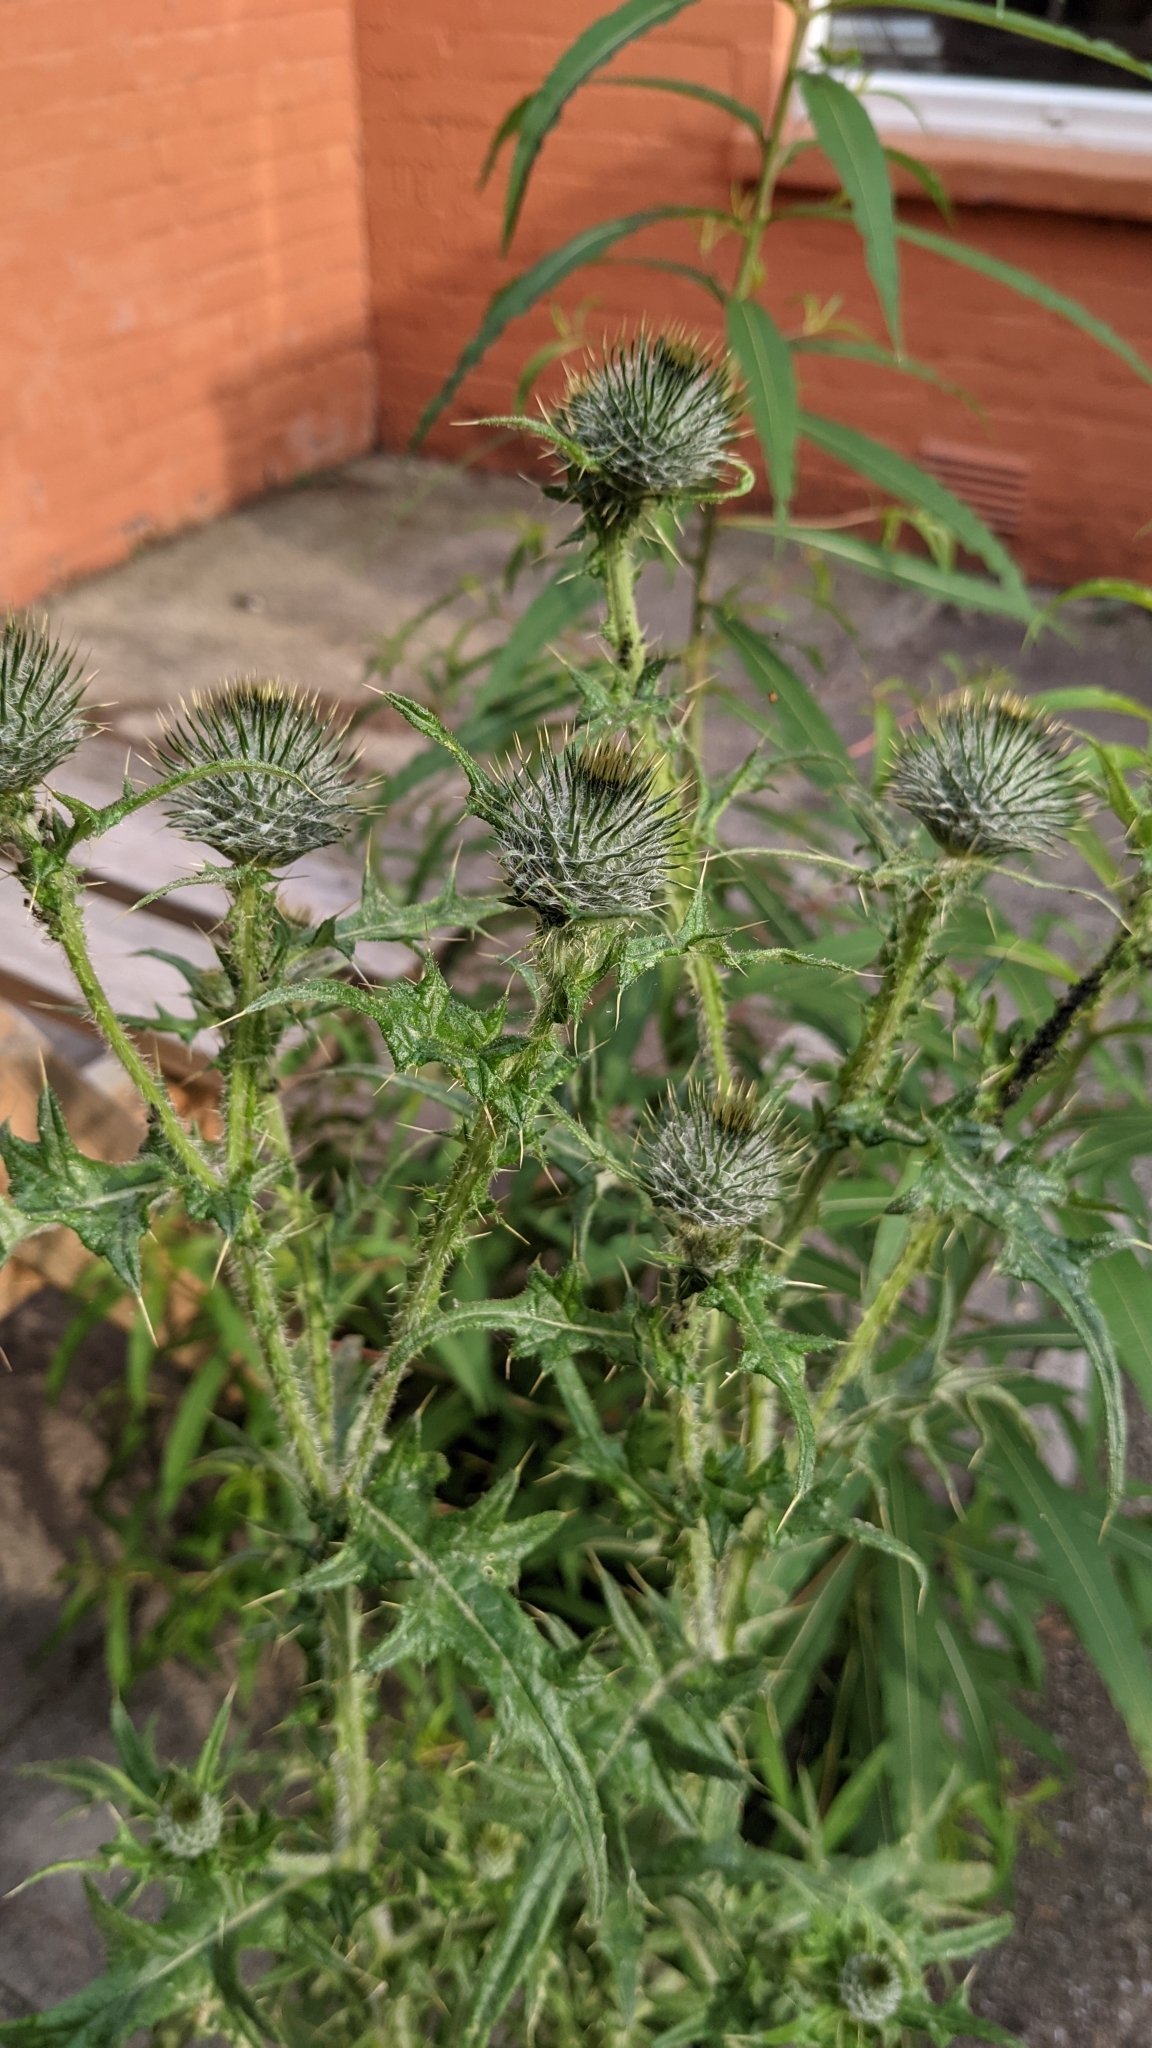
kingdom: Plantae
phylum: Tracheophyta
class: Magnoliopsida
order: Asterales
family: Asteraceae
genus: Cirsium
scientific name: Cirsium vulgare
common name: Bull thistle
